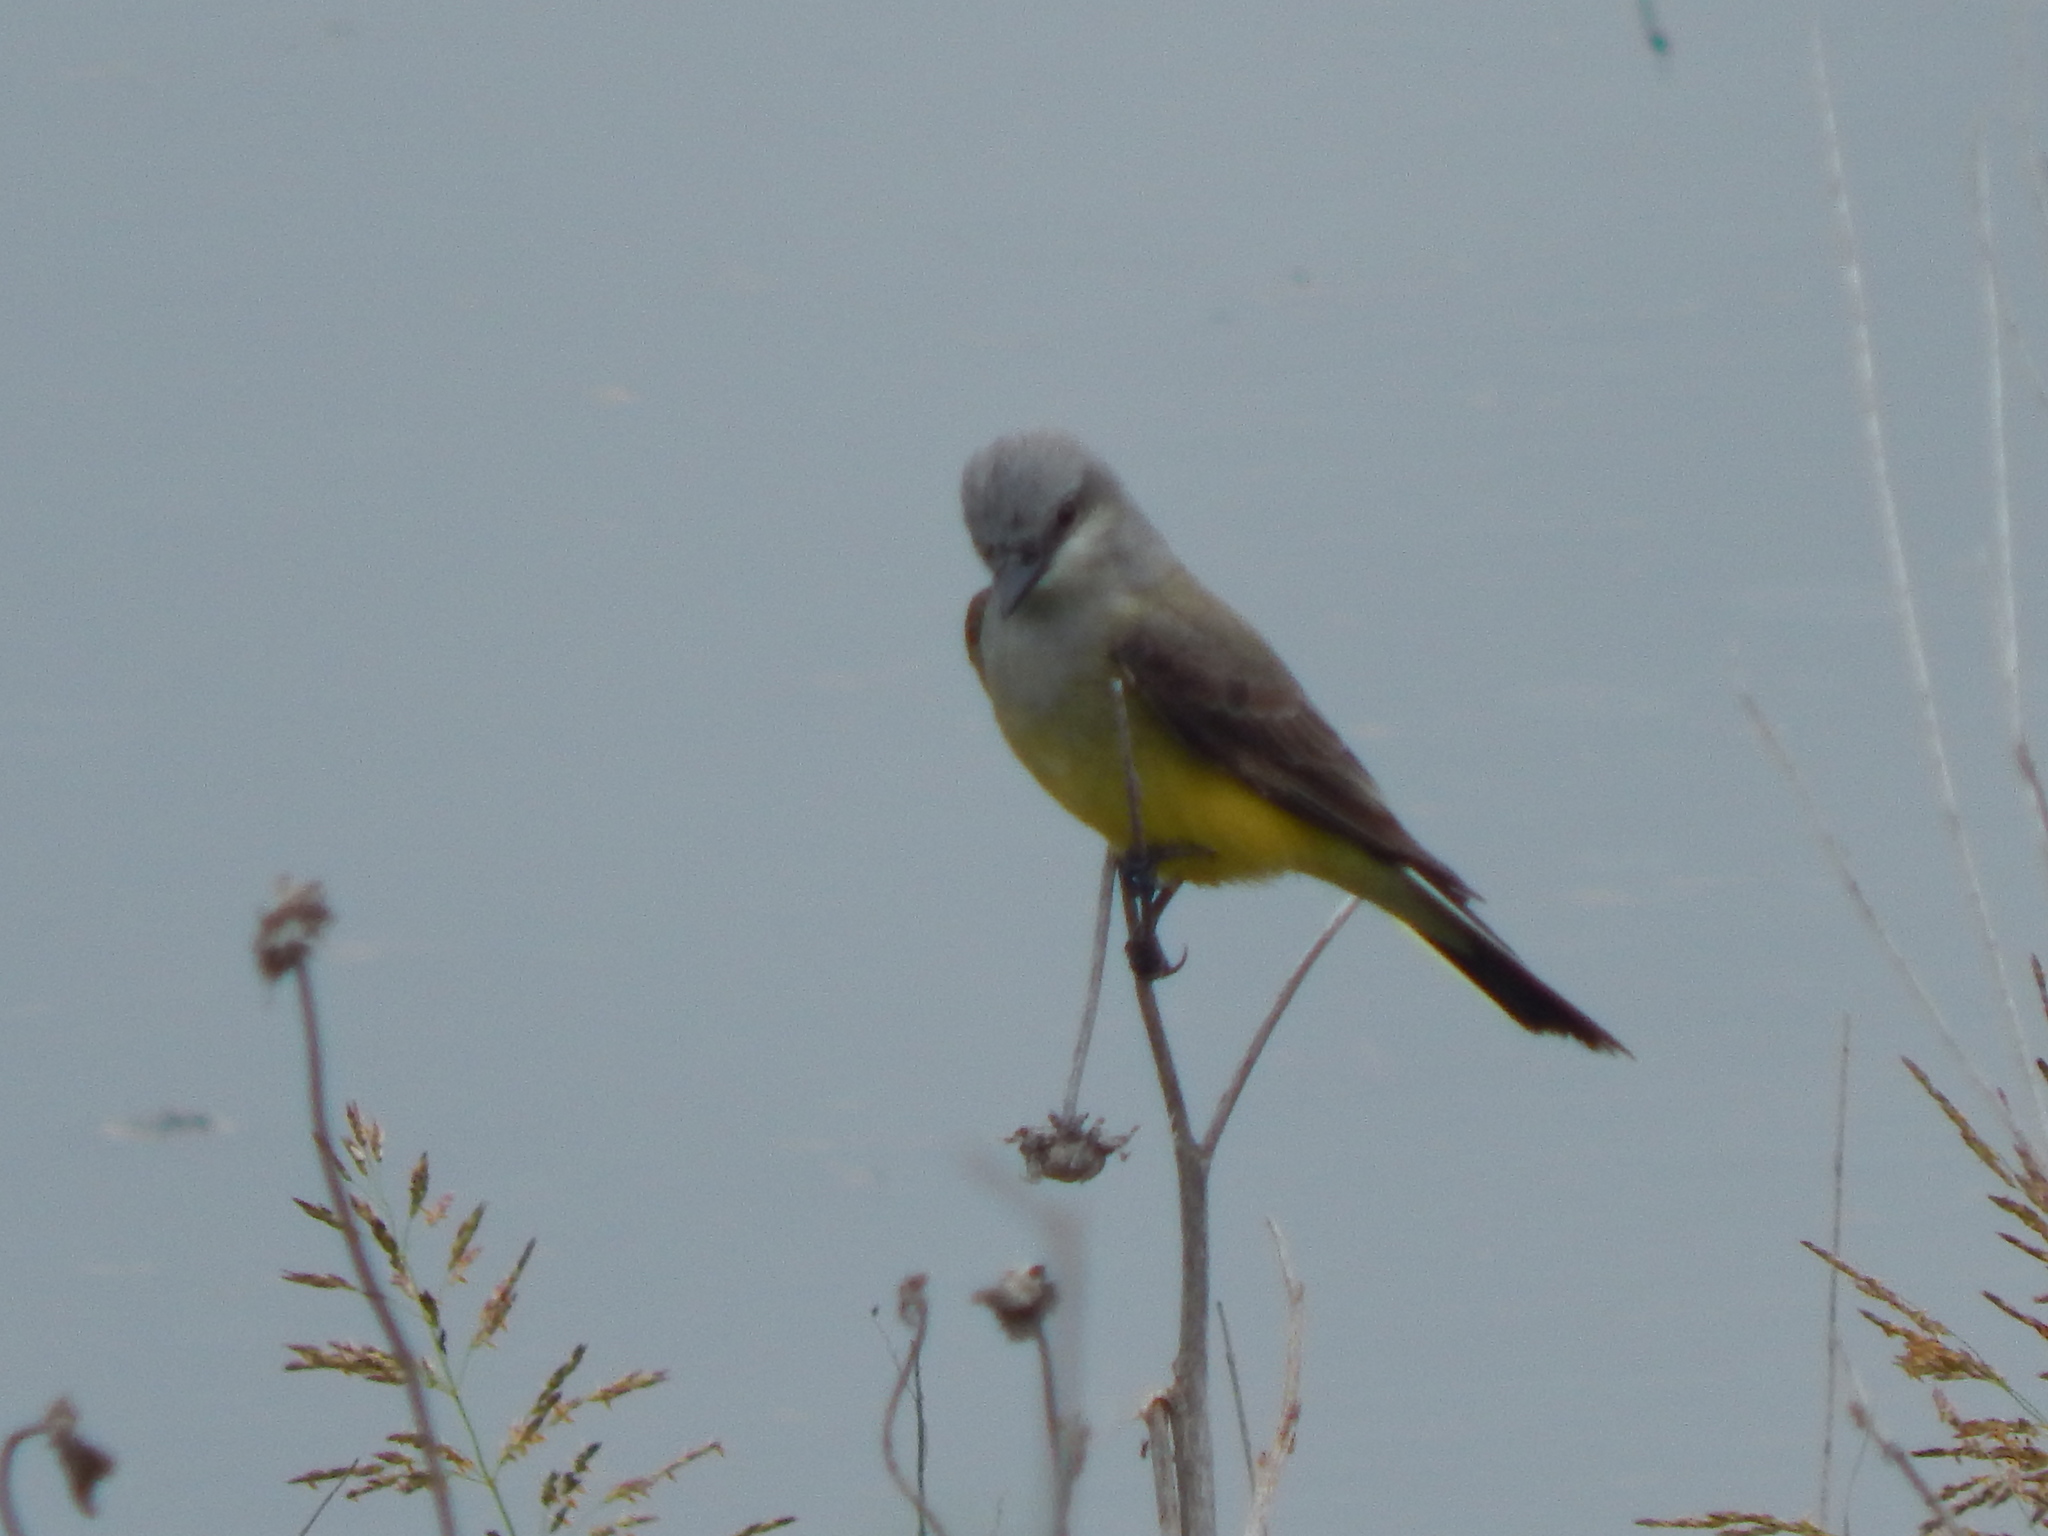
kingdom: Animalia
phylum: Chordata
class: Aves
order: Passeriformes
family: Tyrannidae
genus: Tyrannus
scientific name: Tyrannus verticalis
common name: Western kingbird
